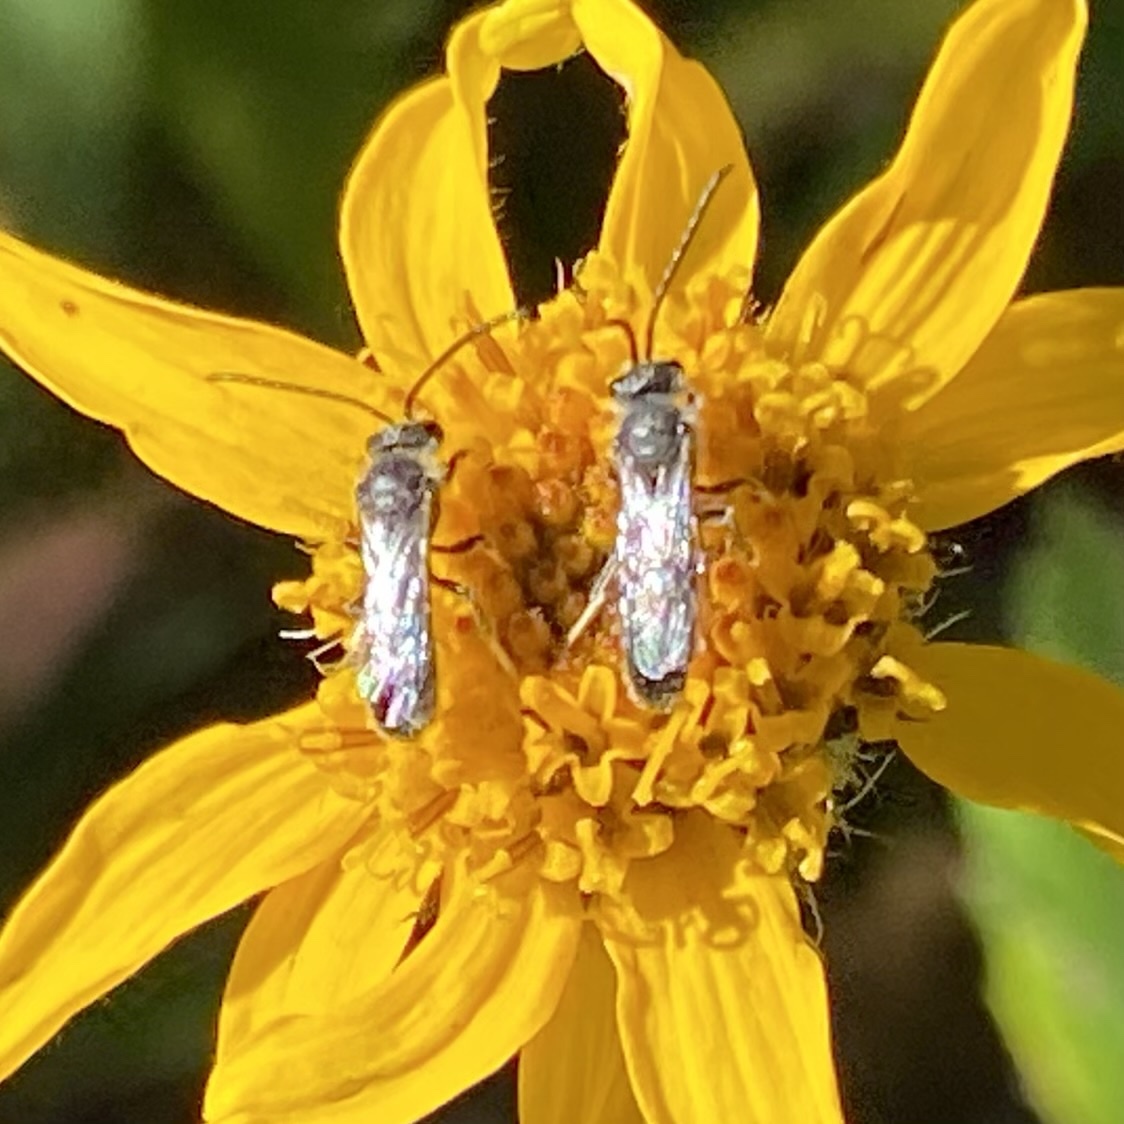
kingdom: Animalia
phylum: Arthropoda
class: Insecta
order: Hymenoptera
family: Halictidae
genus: Lasioglossum
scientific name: Lasioglossum
